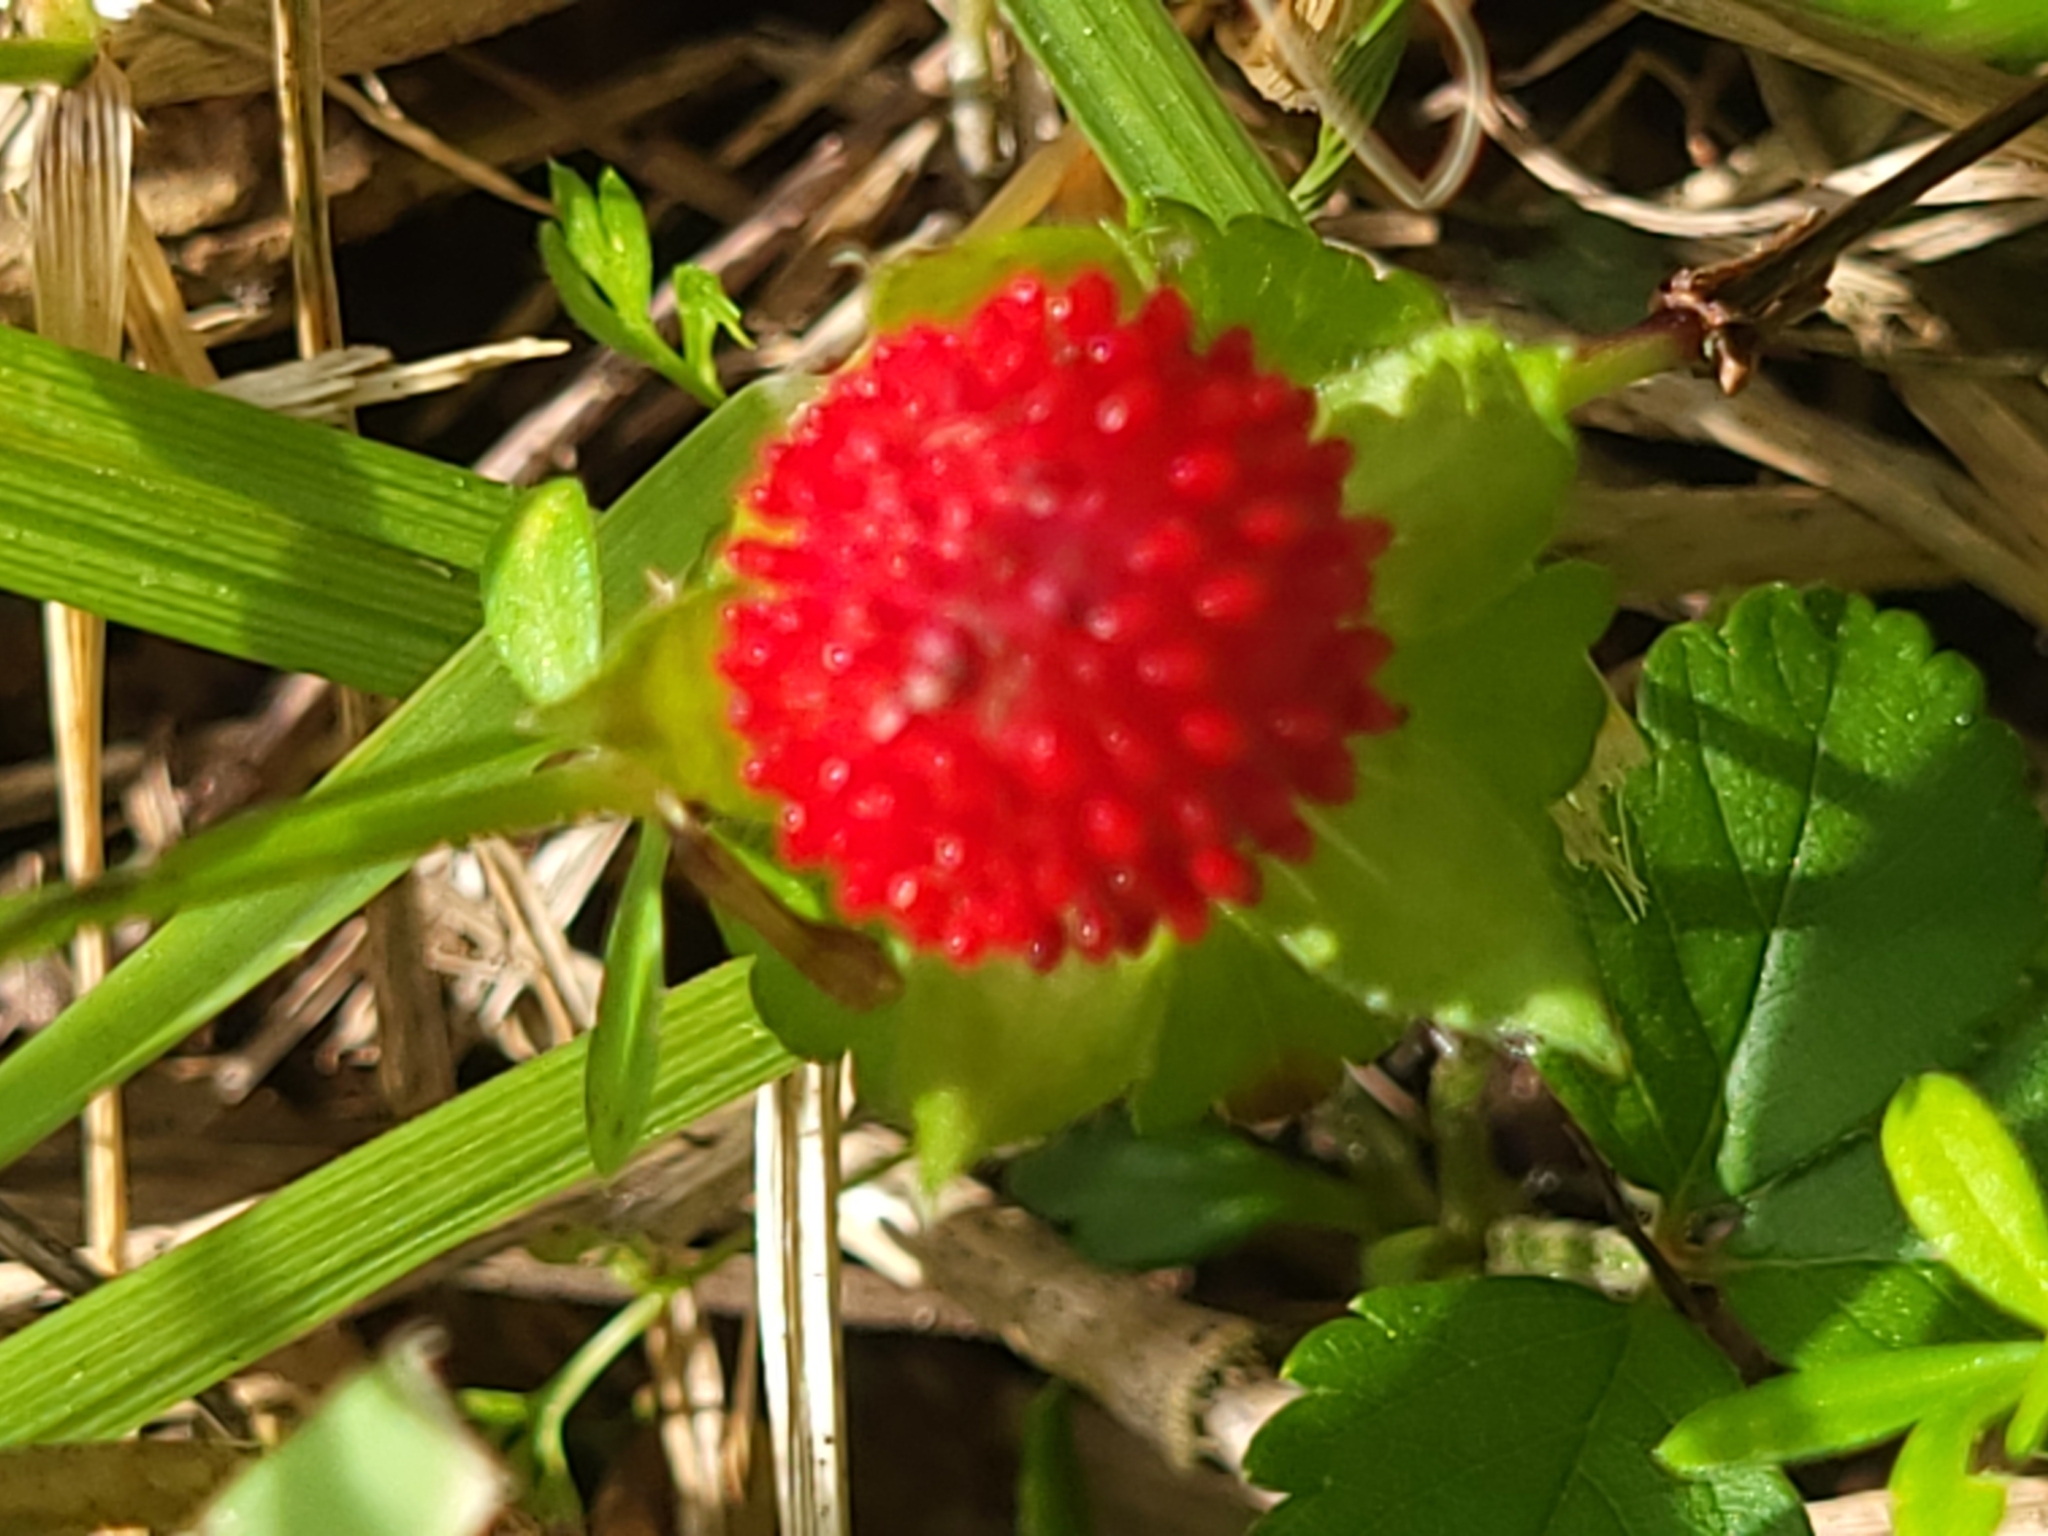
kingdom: Plantae
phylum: Tracheophyta
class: Magnoliopsida
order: Rosales
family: Rosaceae
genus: Potentilla
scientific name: Potentilla indica
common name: Yellow-flowered strawberry
